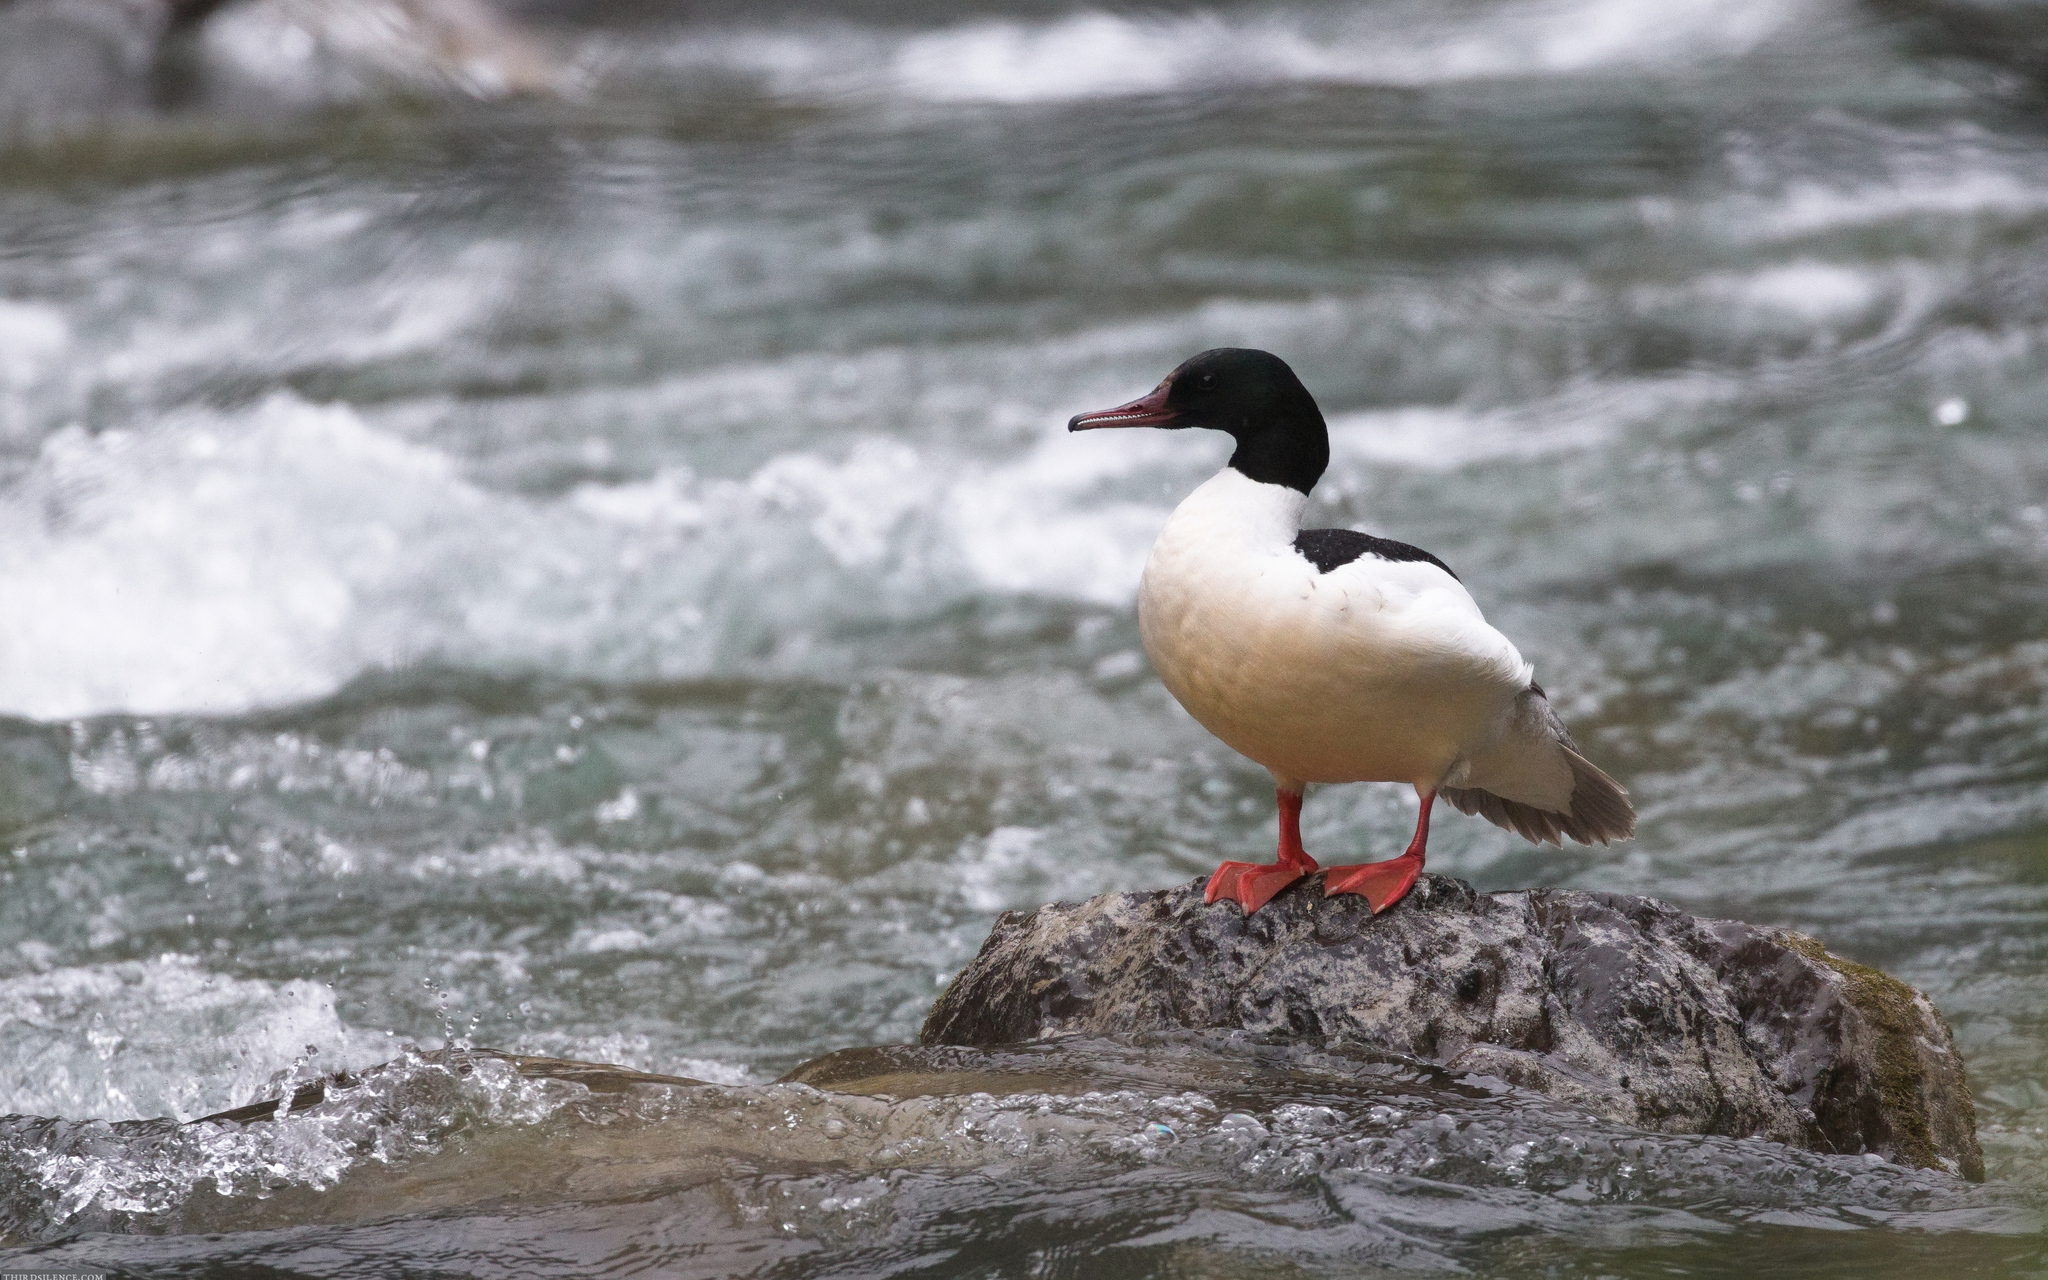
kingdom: Animalia
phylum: Chordata
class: Aves
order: Anseriformes
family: Anatidae
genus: Mergus
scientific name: Mergus merganser
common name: Common merganser
